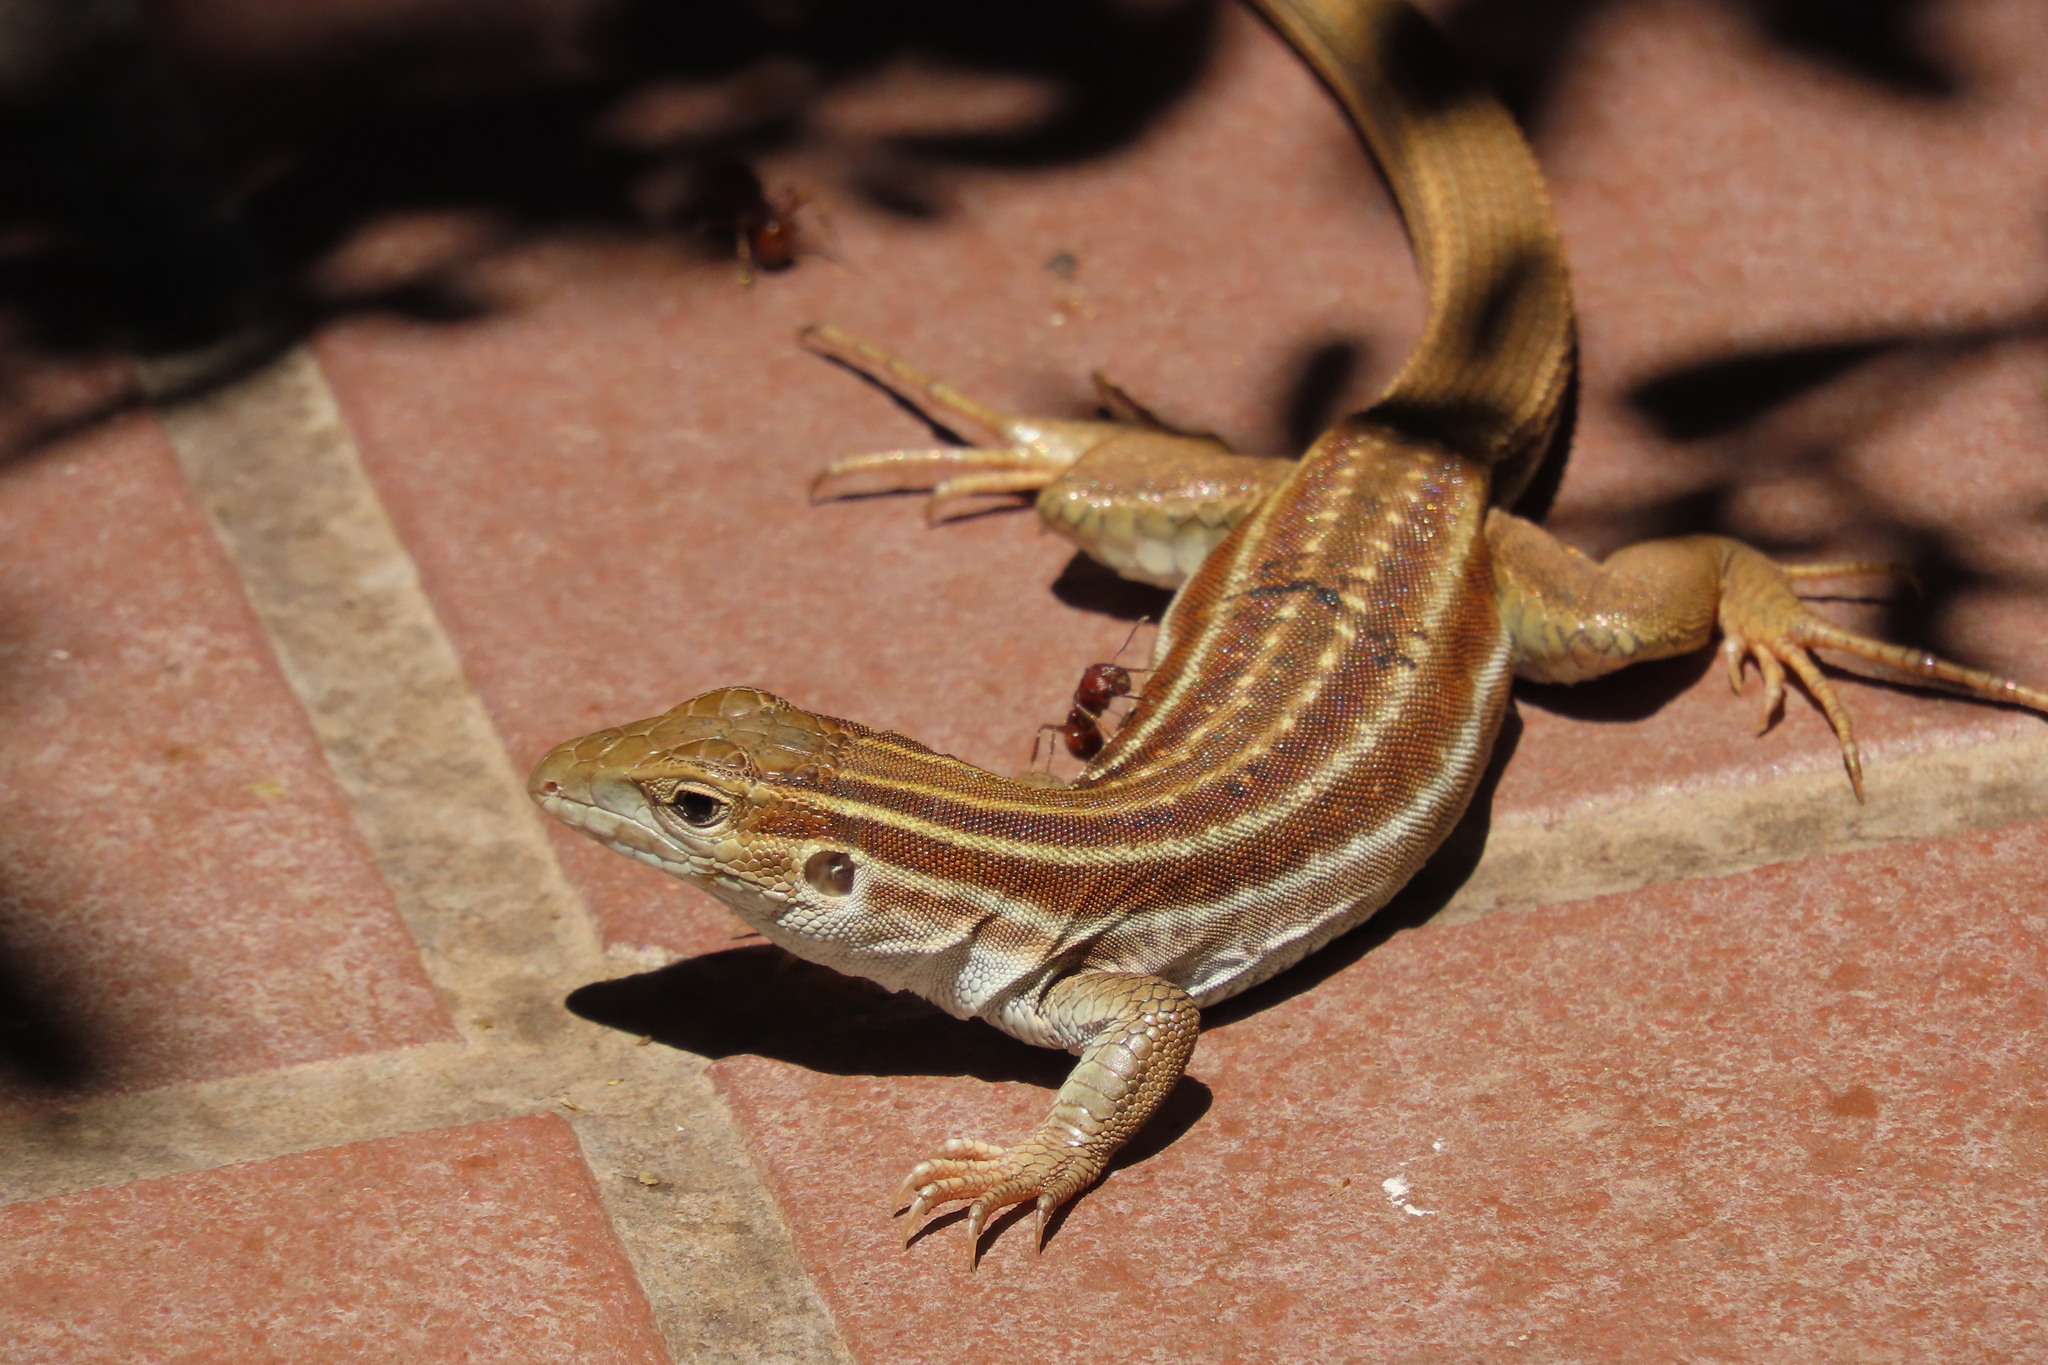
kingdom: Animalia
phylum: Chordata
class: Squamata
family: Teiidae
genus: Aspidoscelis
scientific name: Aspidoscelis sonorae
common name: Sonoran spotted whiptail
